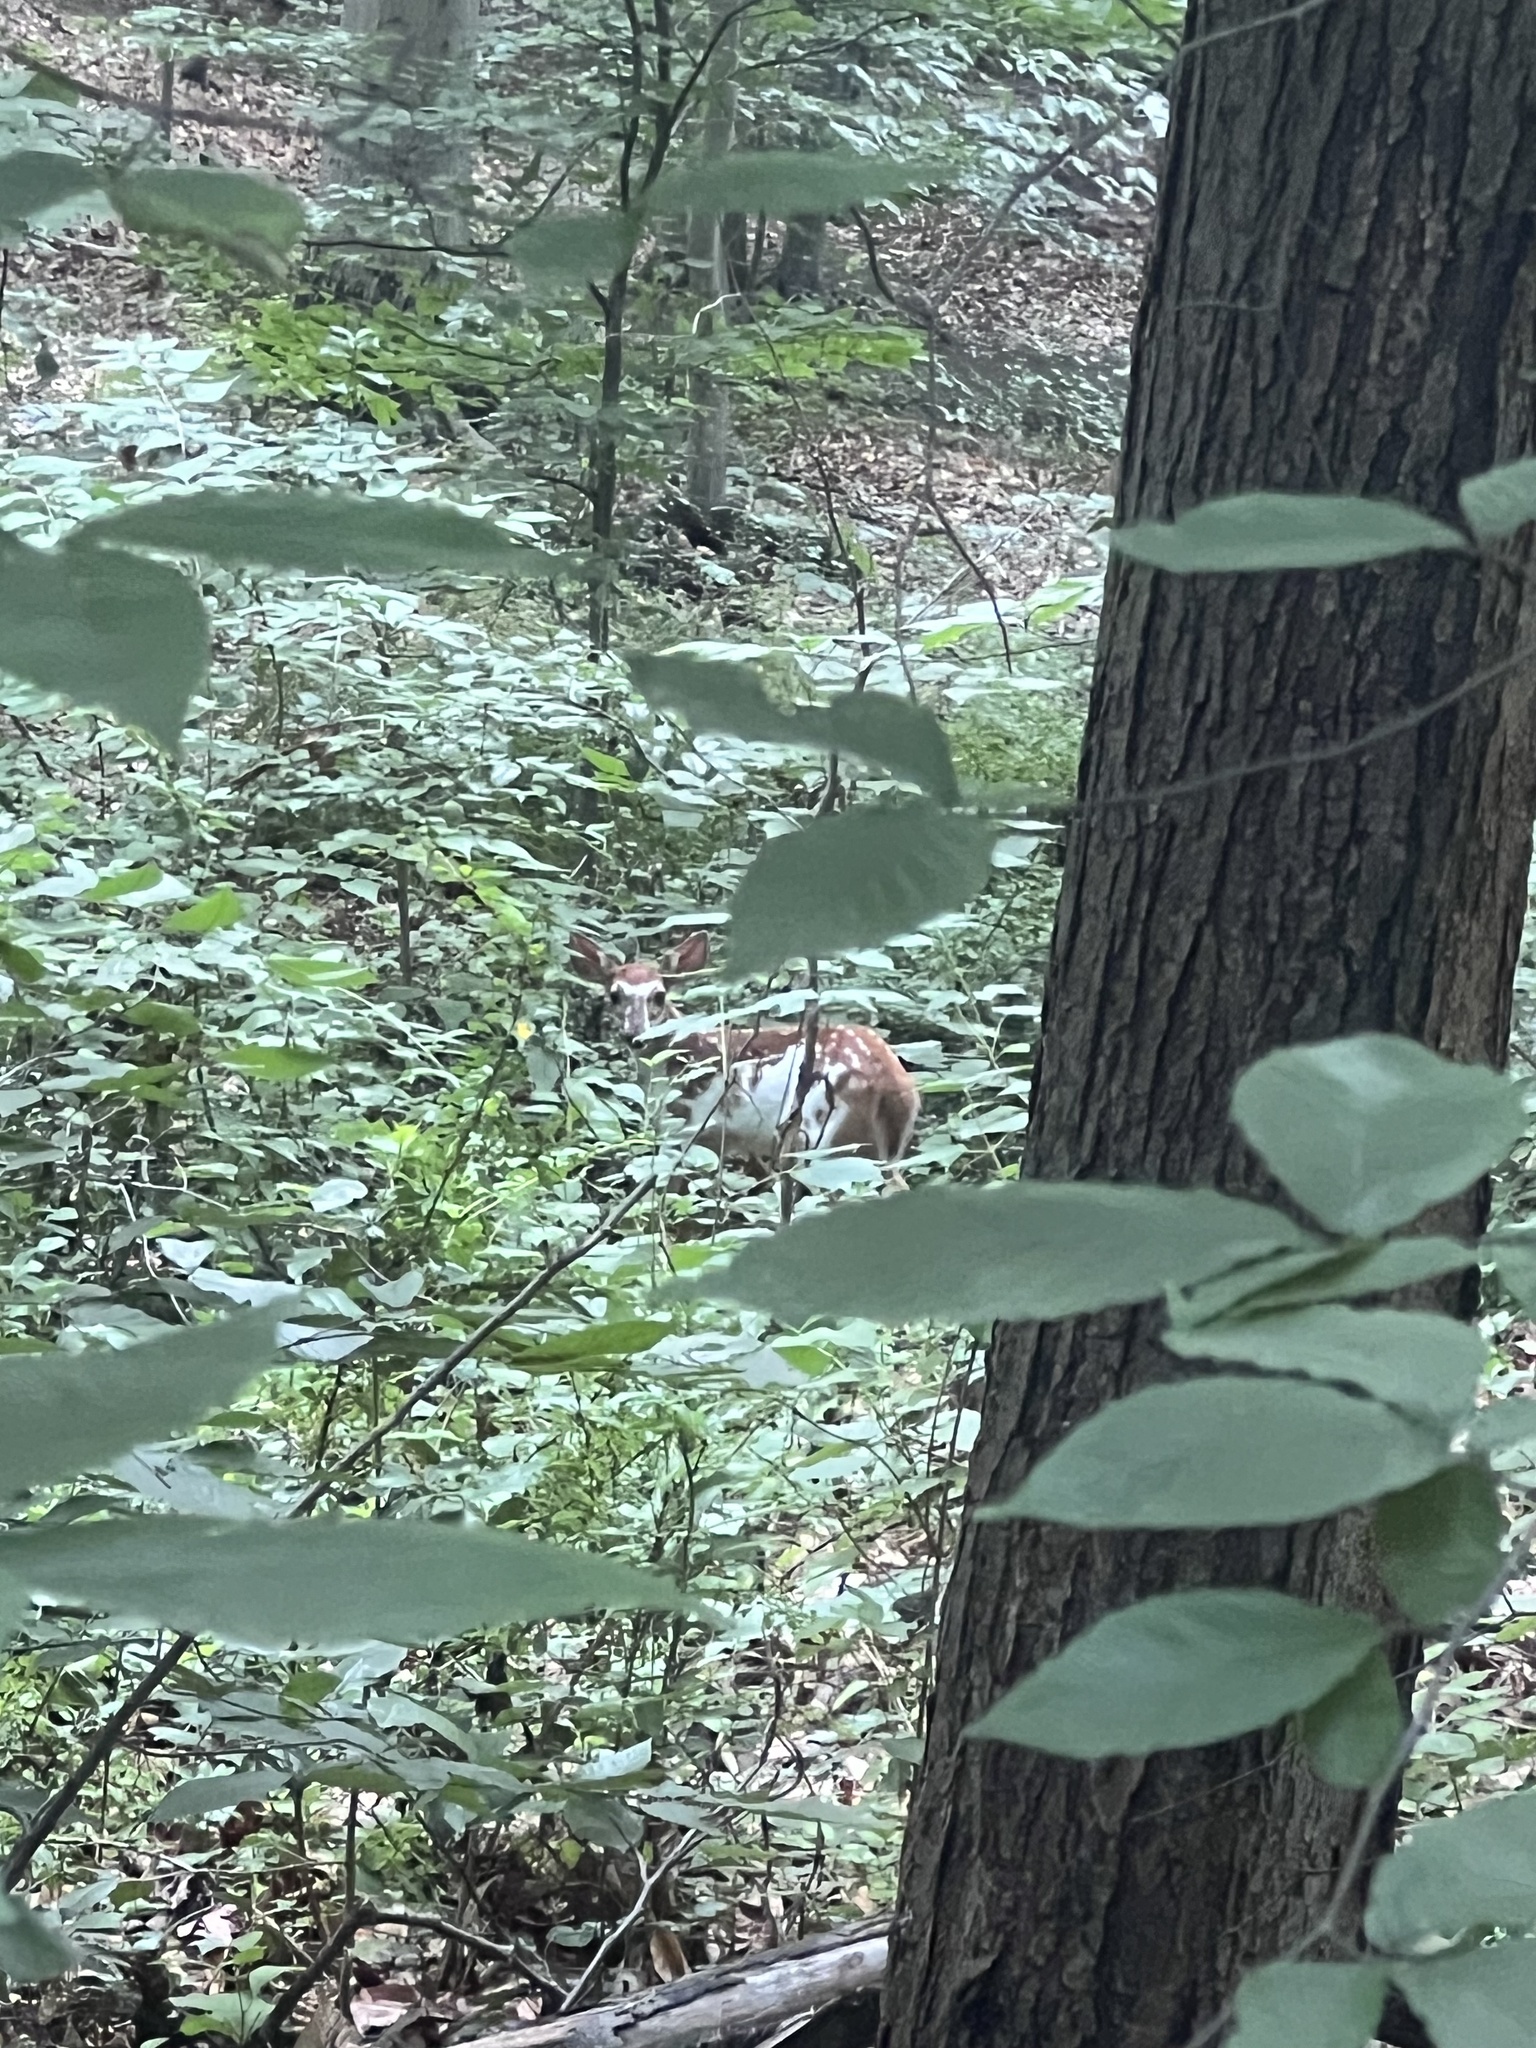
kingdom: Animalia
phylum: Chordata
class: Mammalia
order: Artiodactyla
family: Cervidae
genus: Odocoileus
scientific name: Odocoileus virginianus
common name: White-tailed deer
